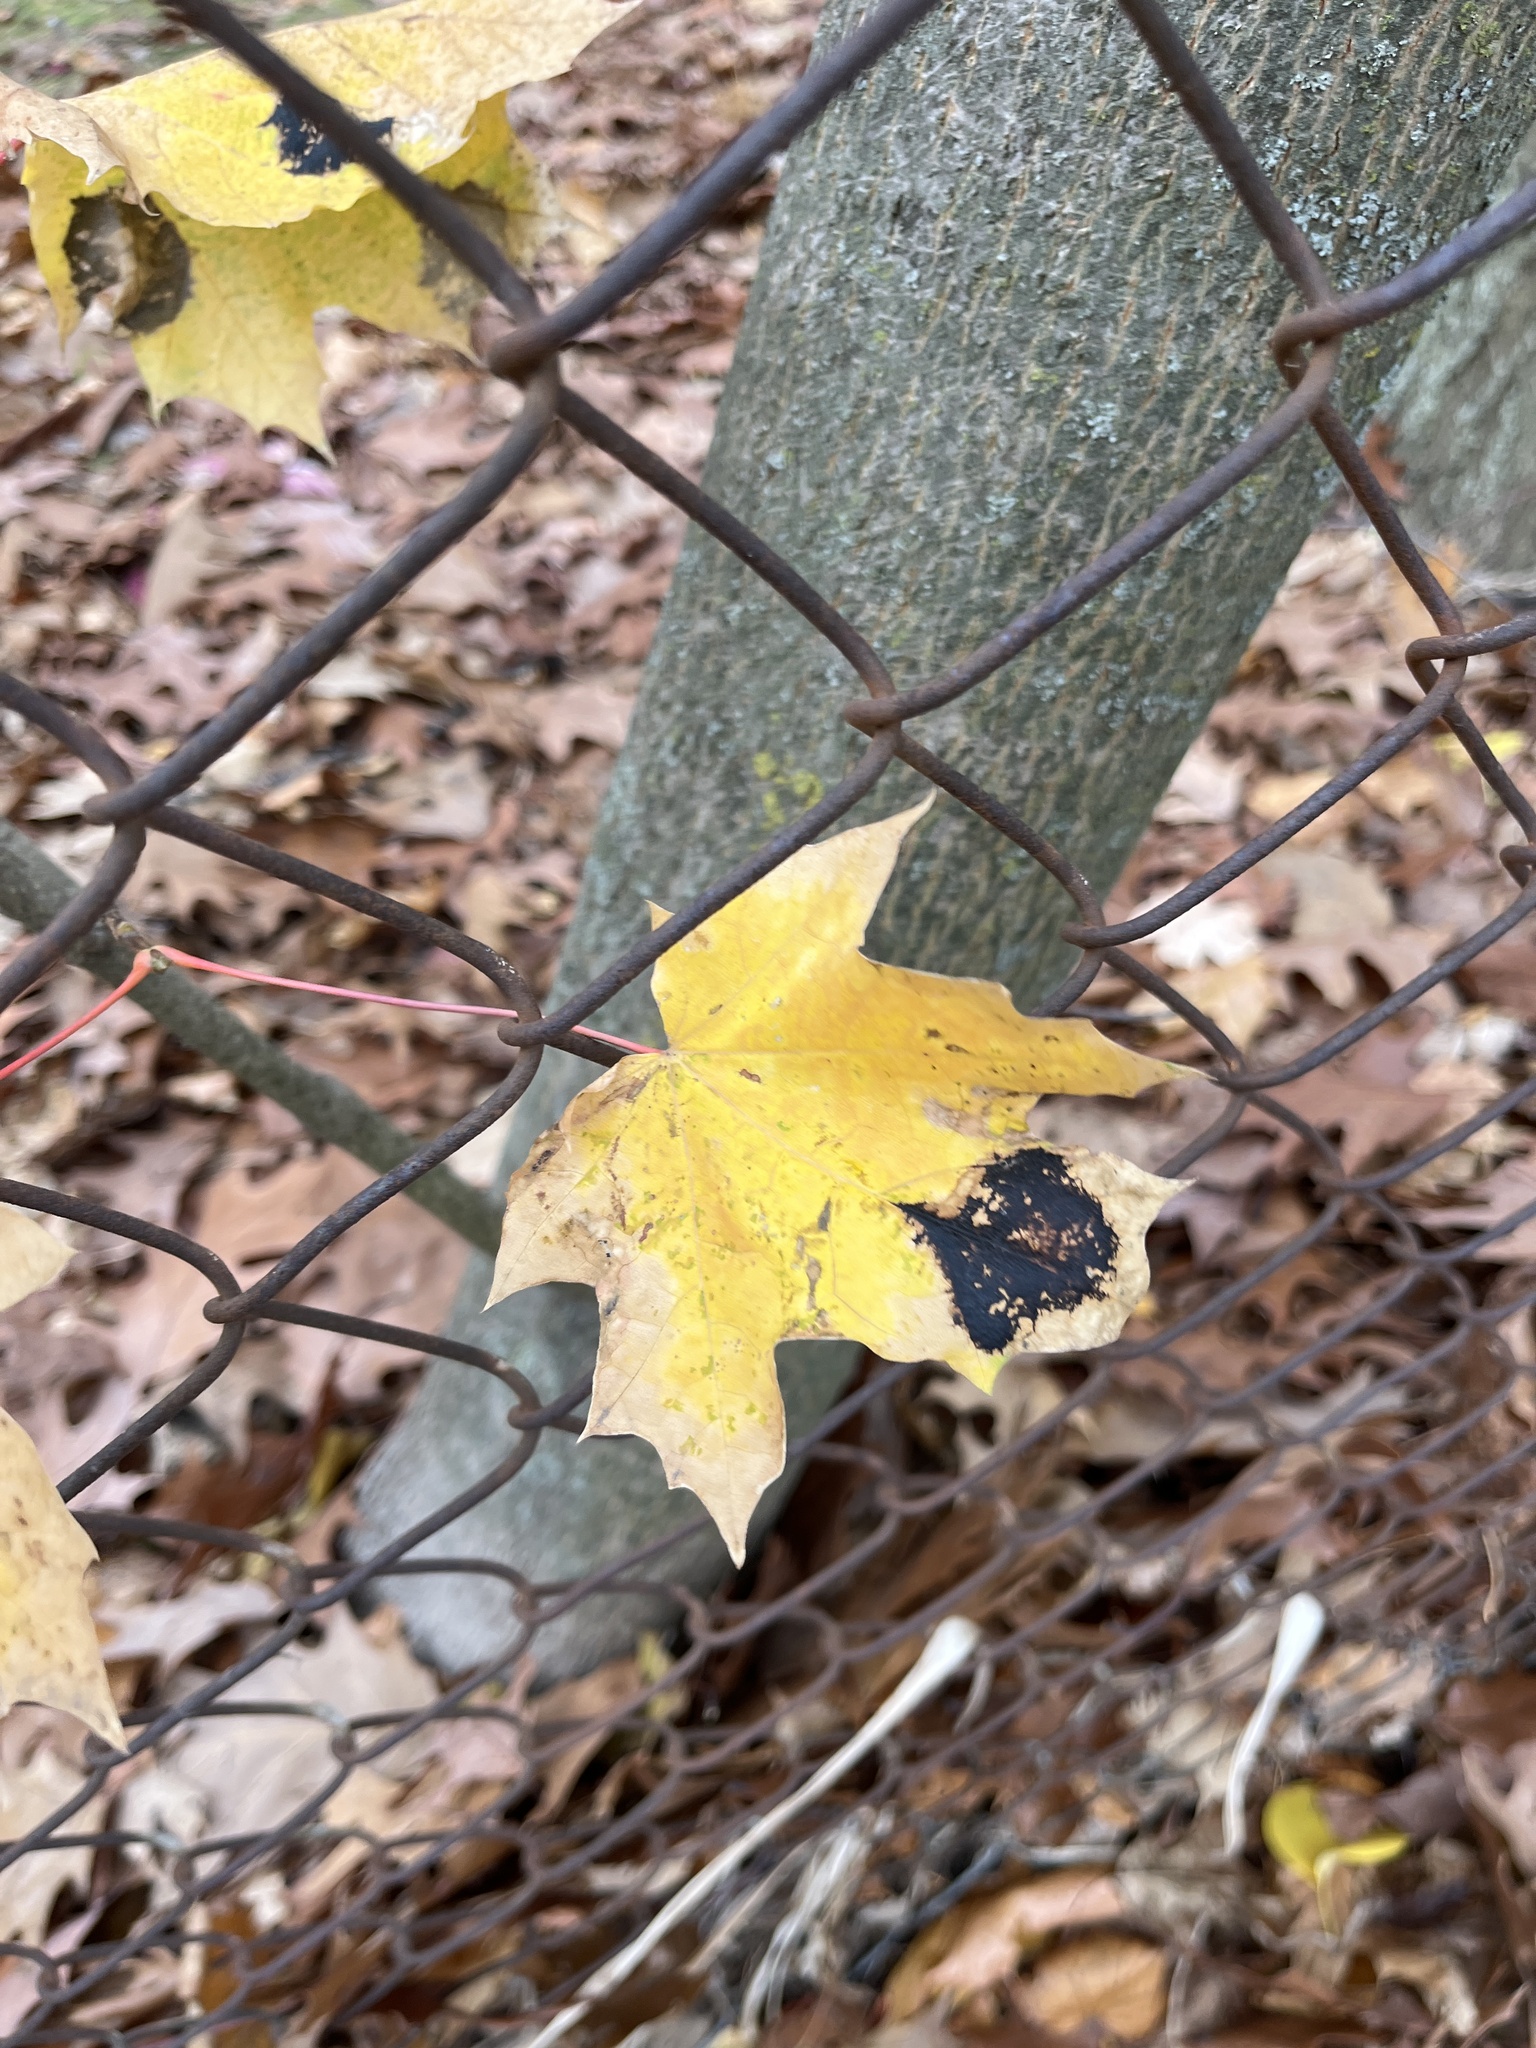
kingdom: Fungi
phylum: Ascomycota
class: Leotiomycetes
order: Rhytismatales
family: Rhytismataceae
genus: Rhytisma
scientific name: Rhytisma acerinum
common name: European tar spot
